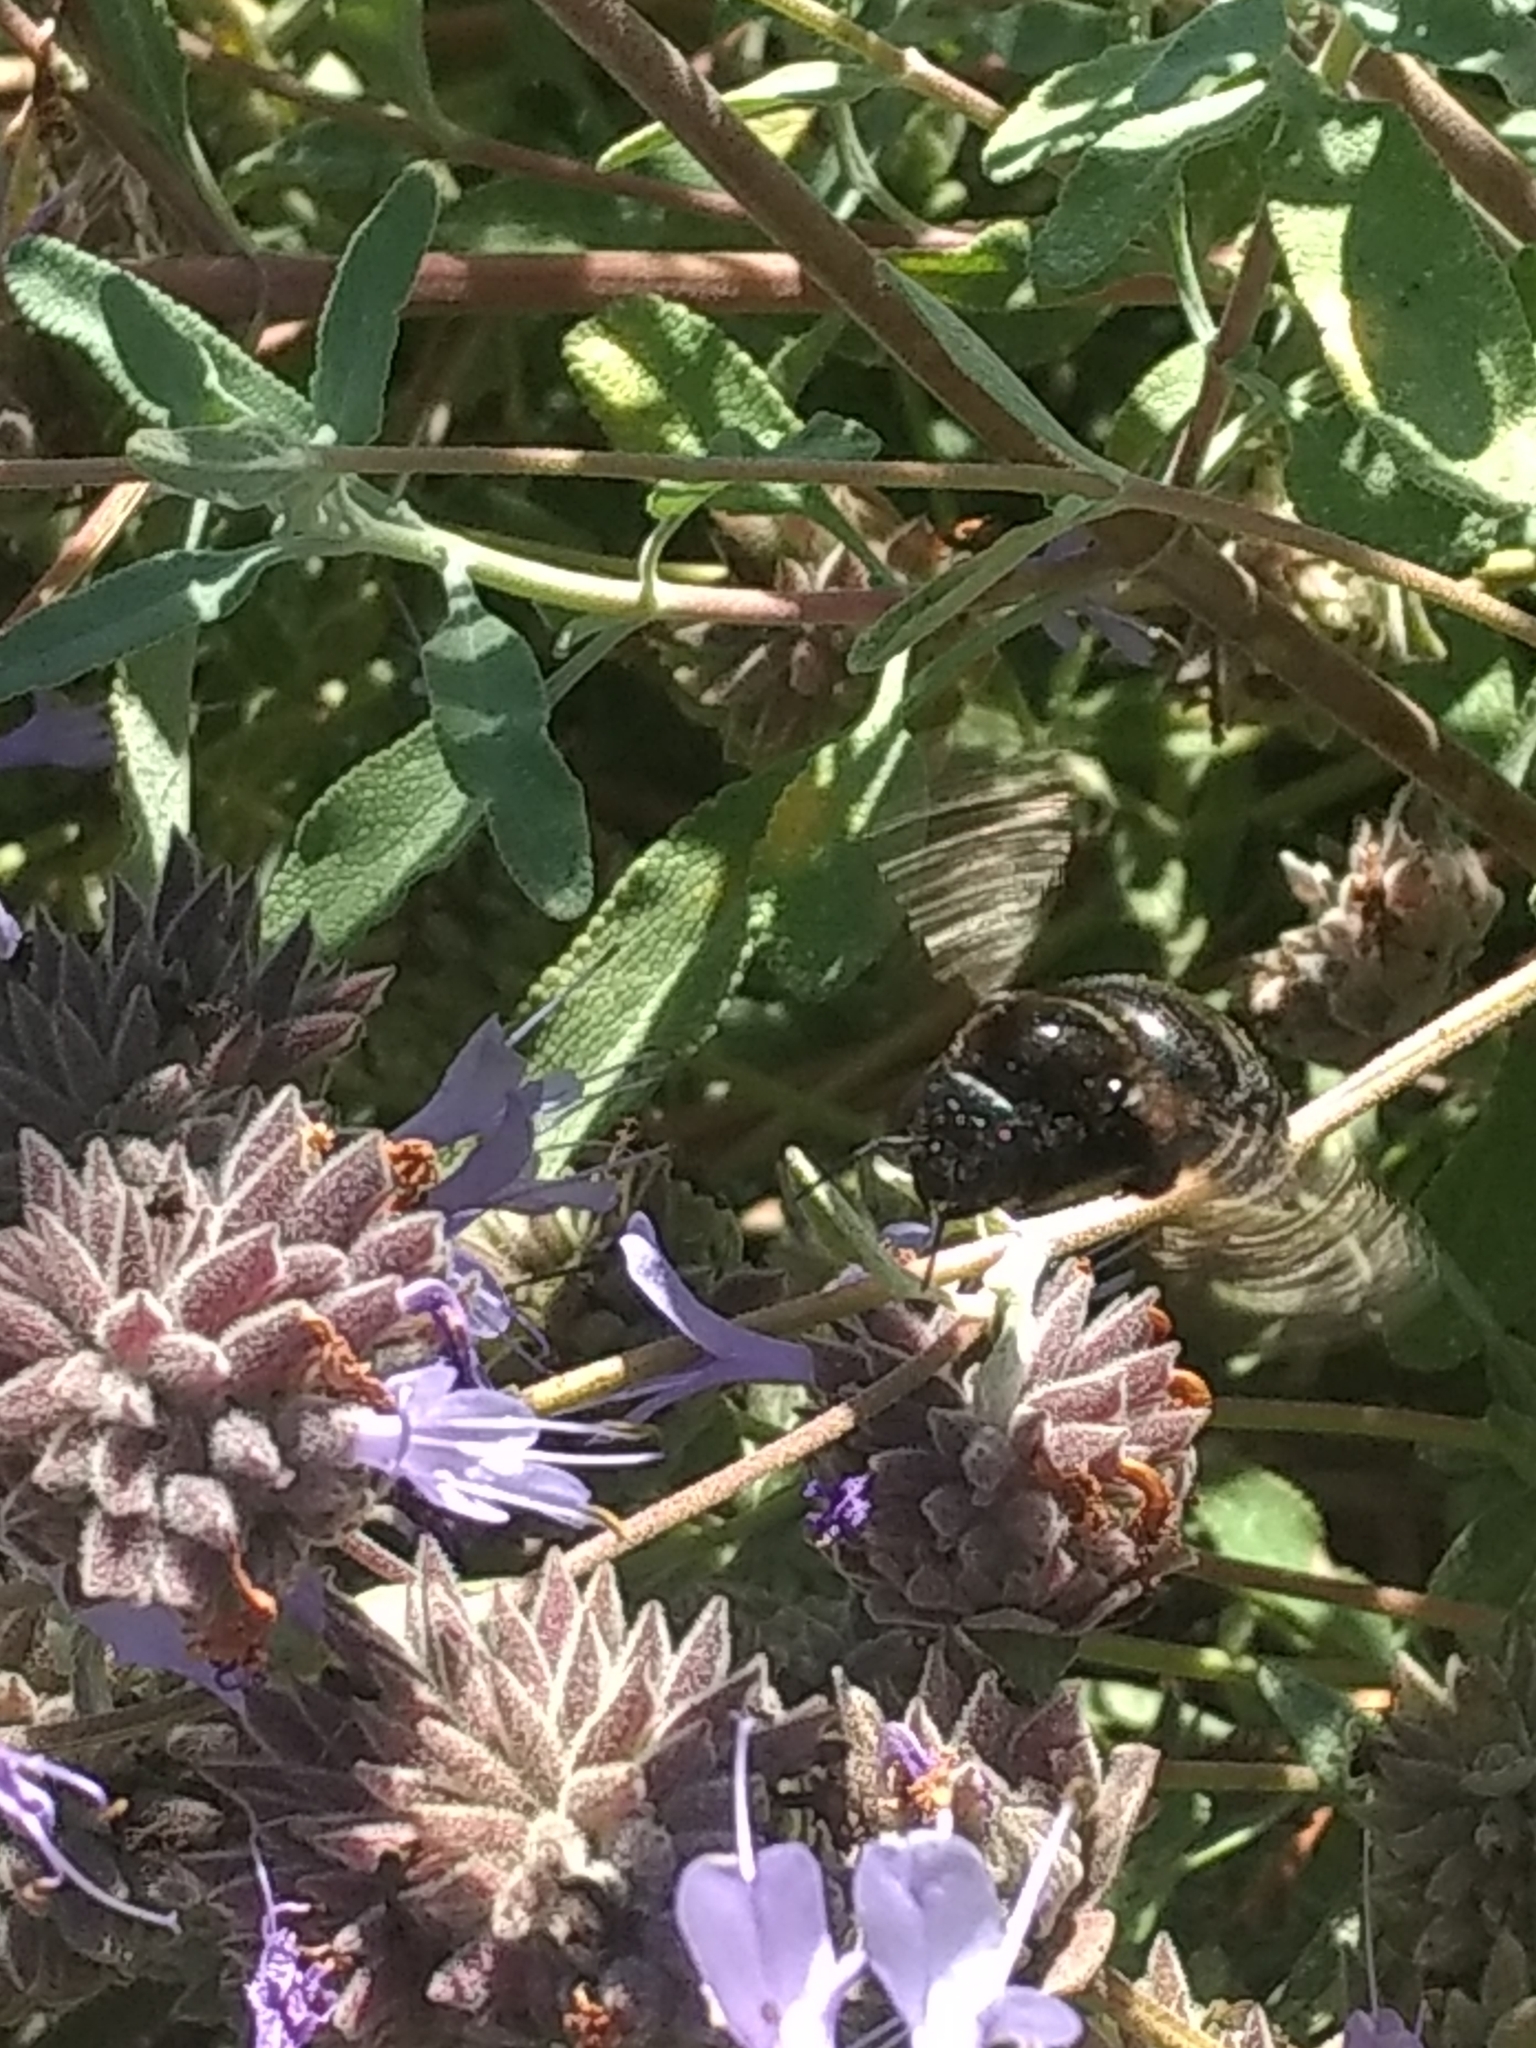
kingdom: Animalia
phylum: Arthropoda
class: Insecta
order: Hymenoptera
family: Apidae
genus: Xylocopa
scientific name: Xylocopa sonorina
